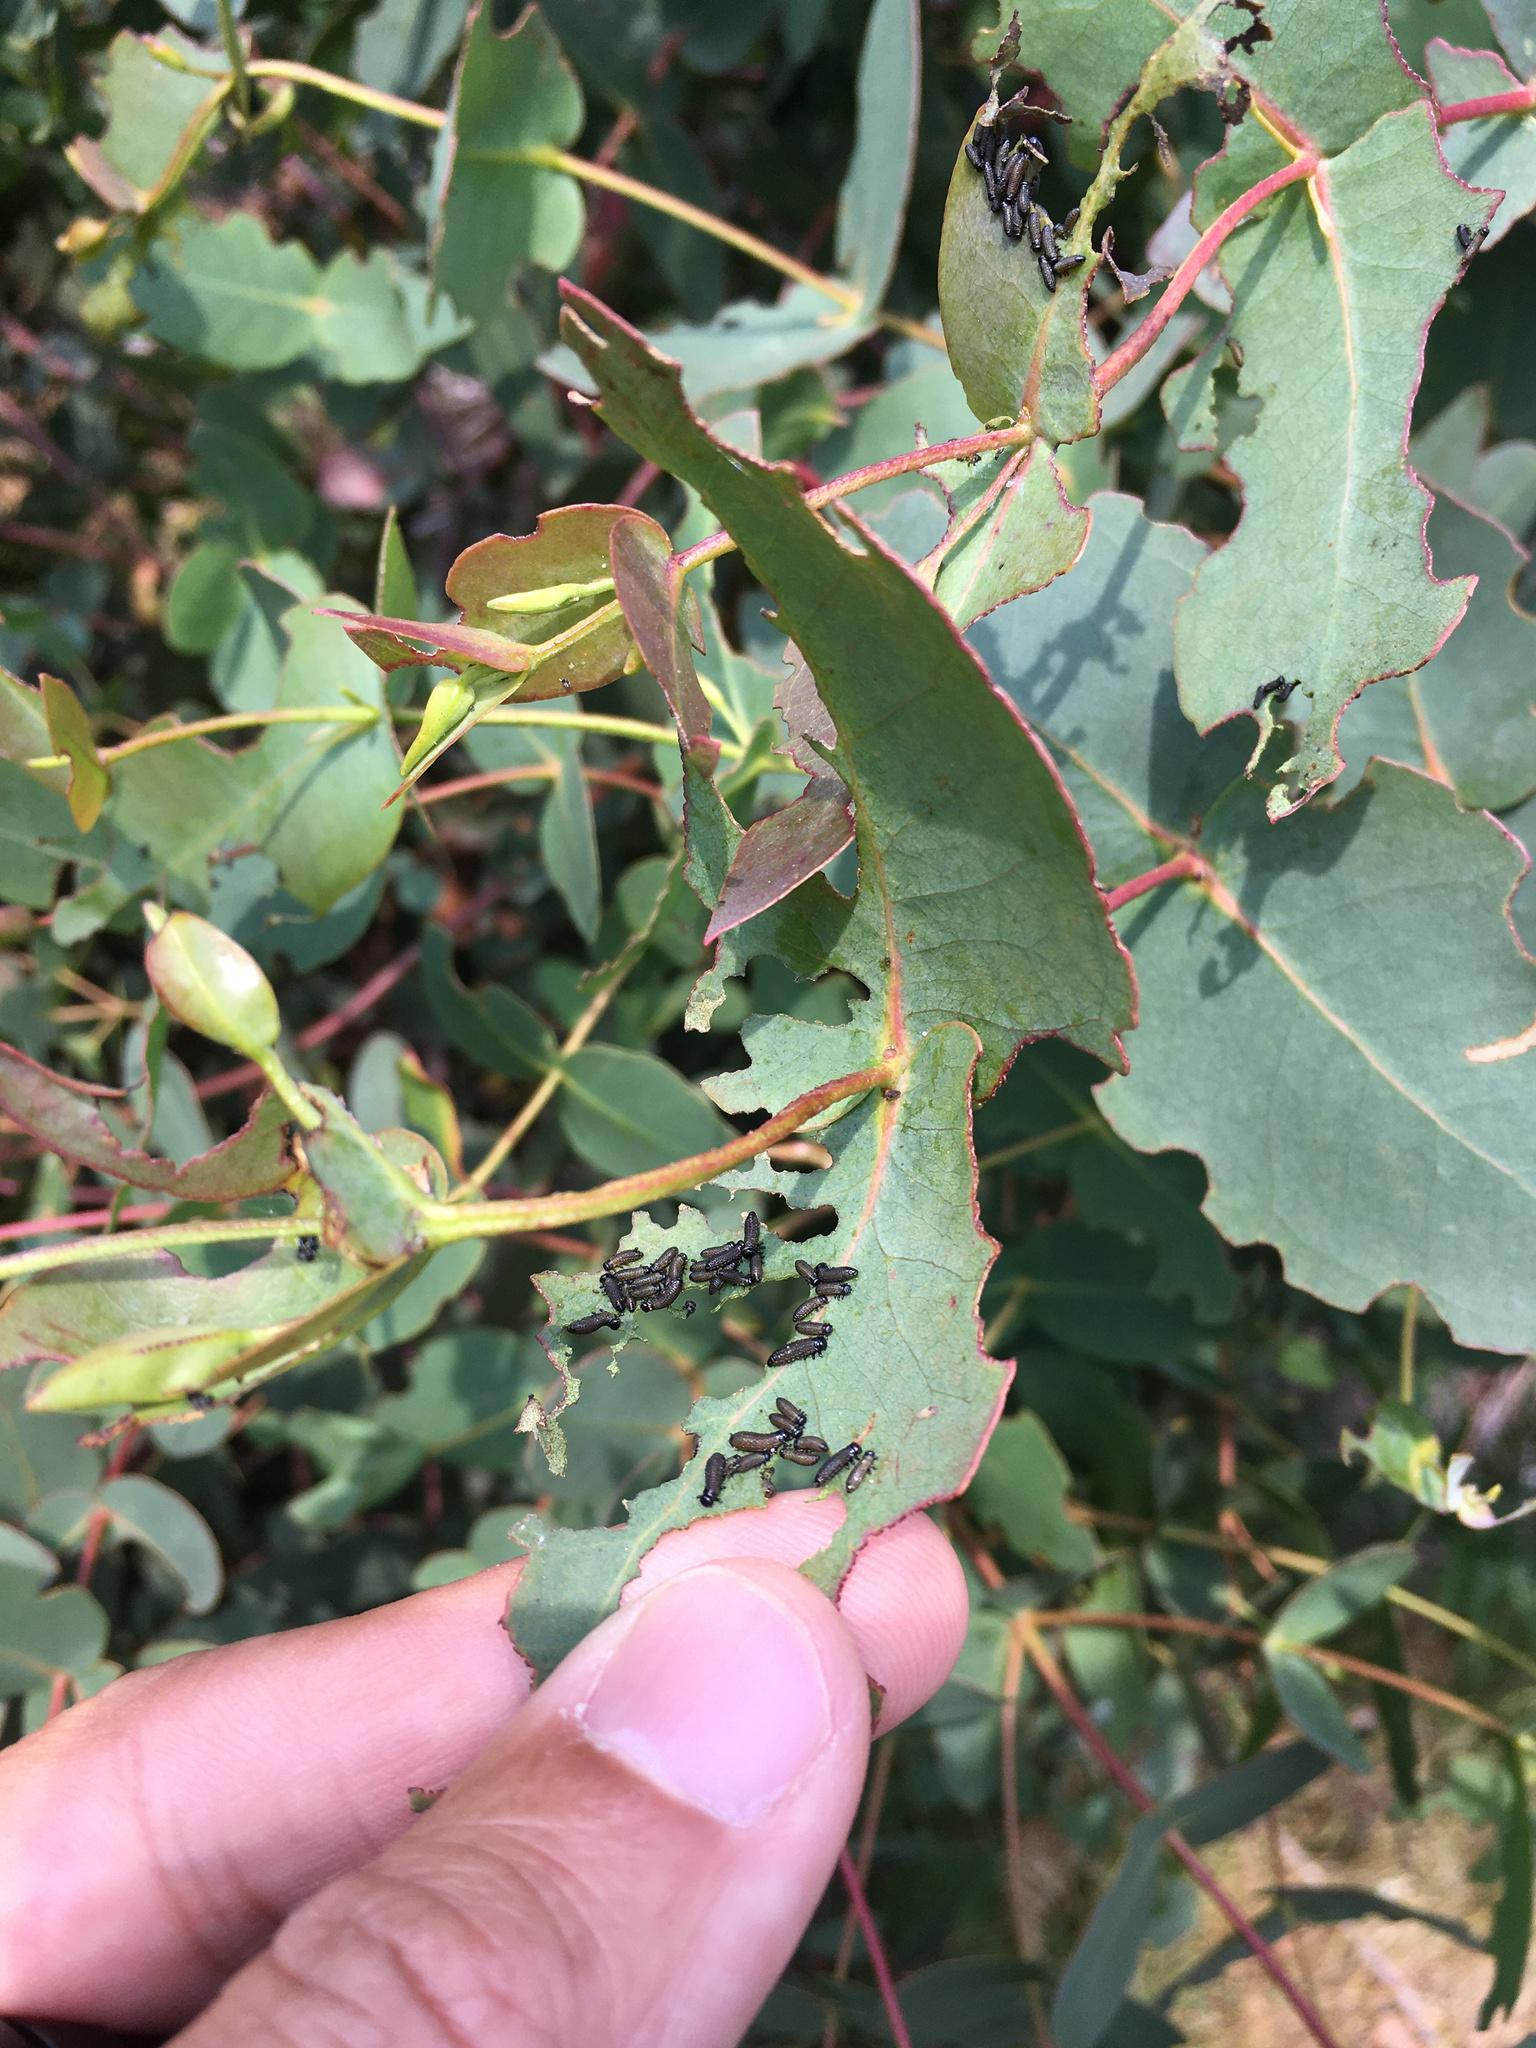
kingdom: Animalia
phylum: Arthropoda
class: Insecta
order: Coleoptera
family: Chrysomelidae
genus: Paropsisterna
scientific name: Paropsisterna agricola
